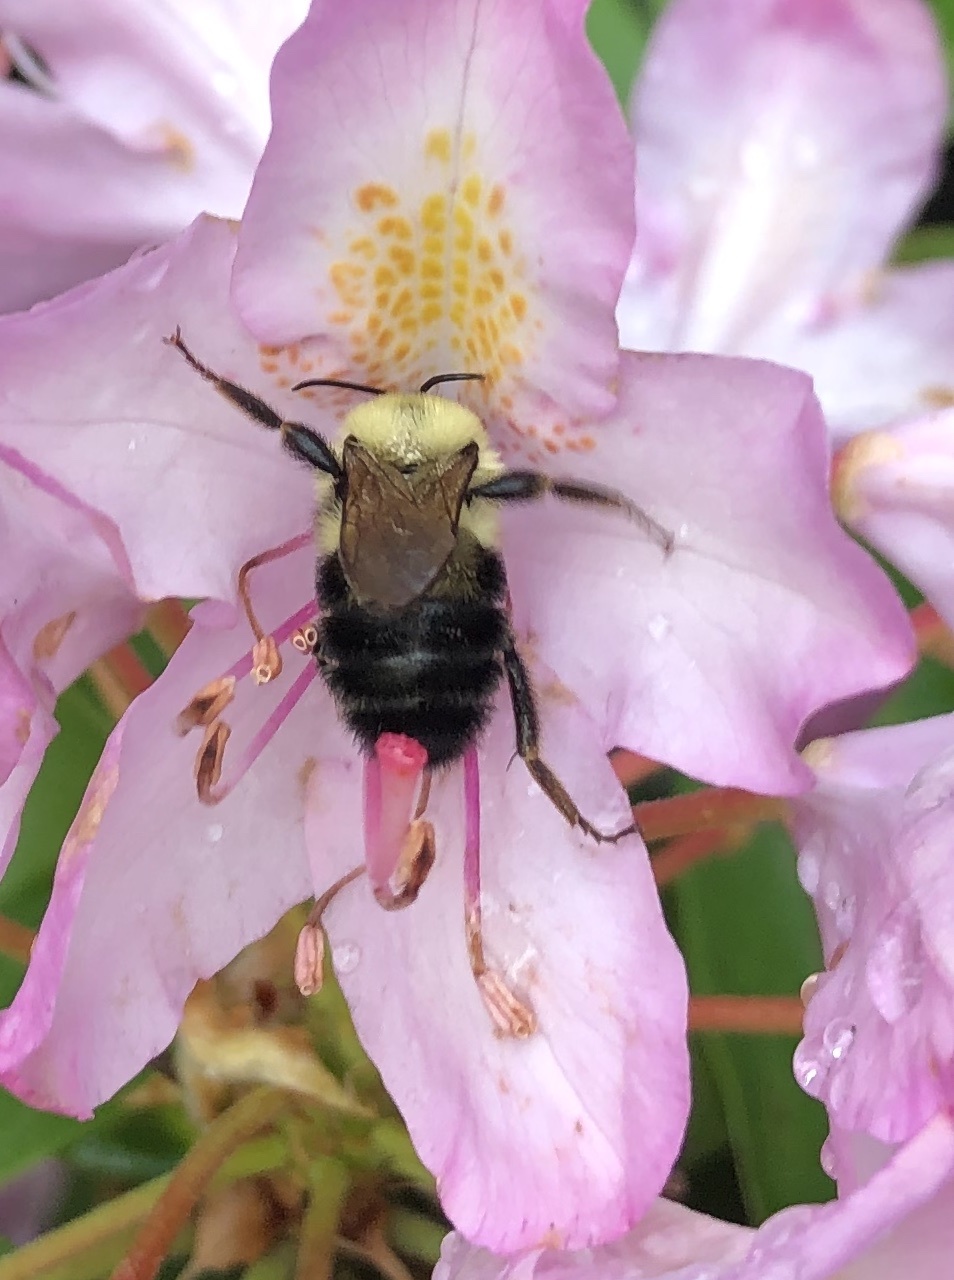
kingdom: Animalia
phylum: Arthropoda
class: Insecta
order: Hymenoptera
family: Apidae
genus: Bombus
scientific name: Bombus bimaculatus
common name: Two-spotted bumble bee
